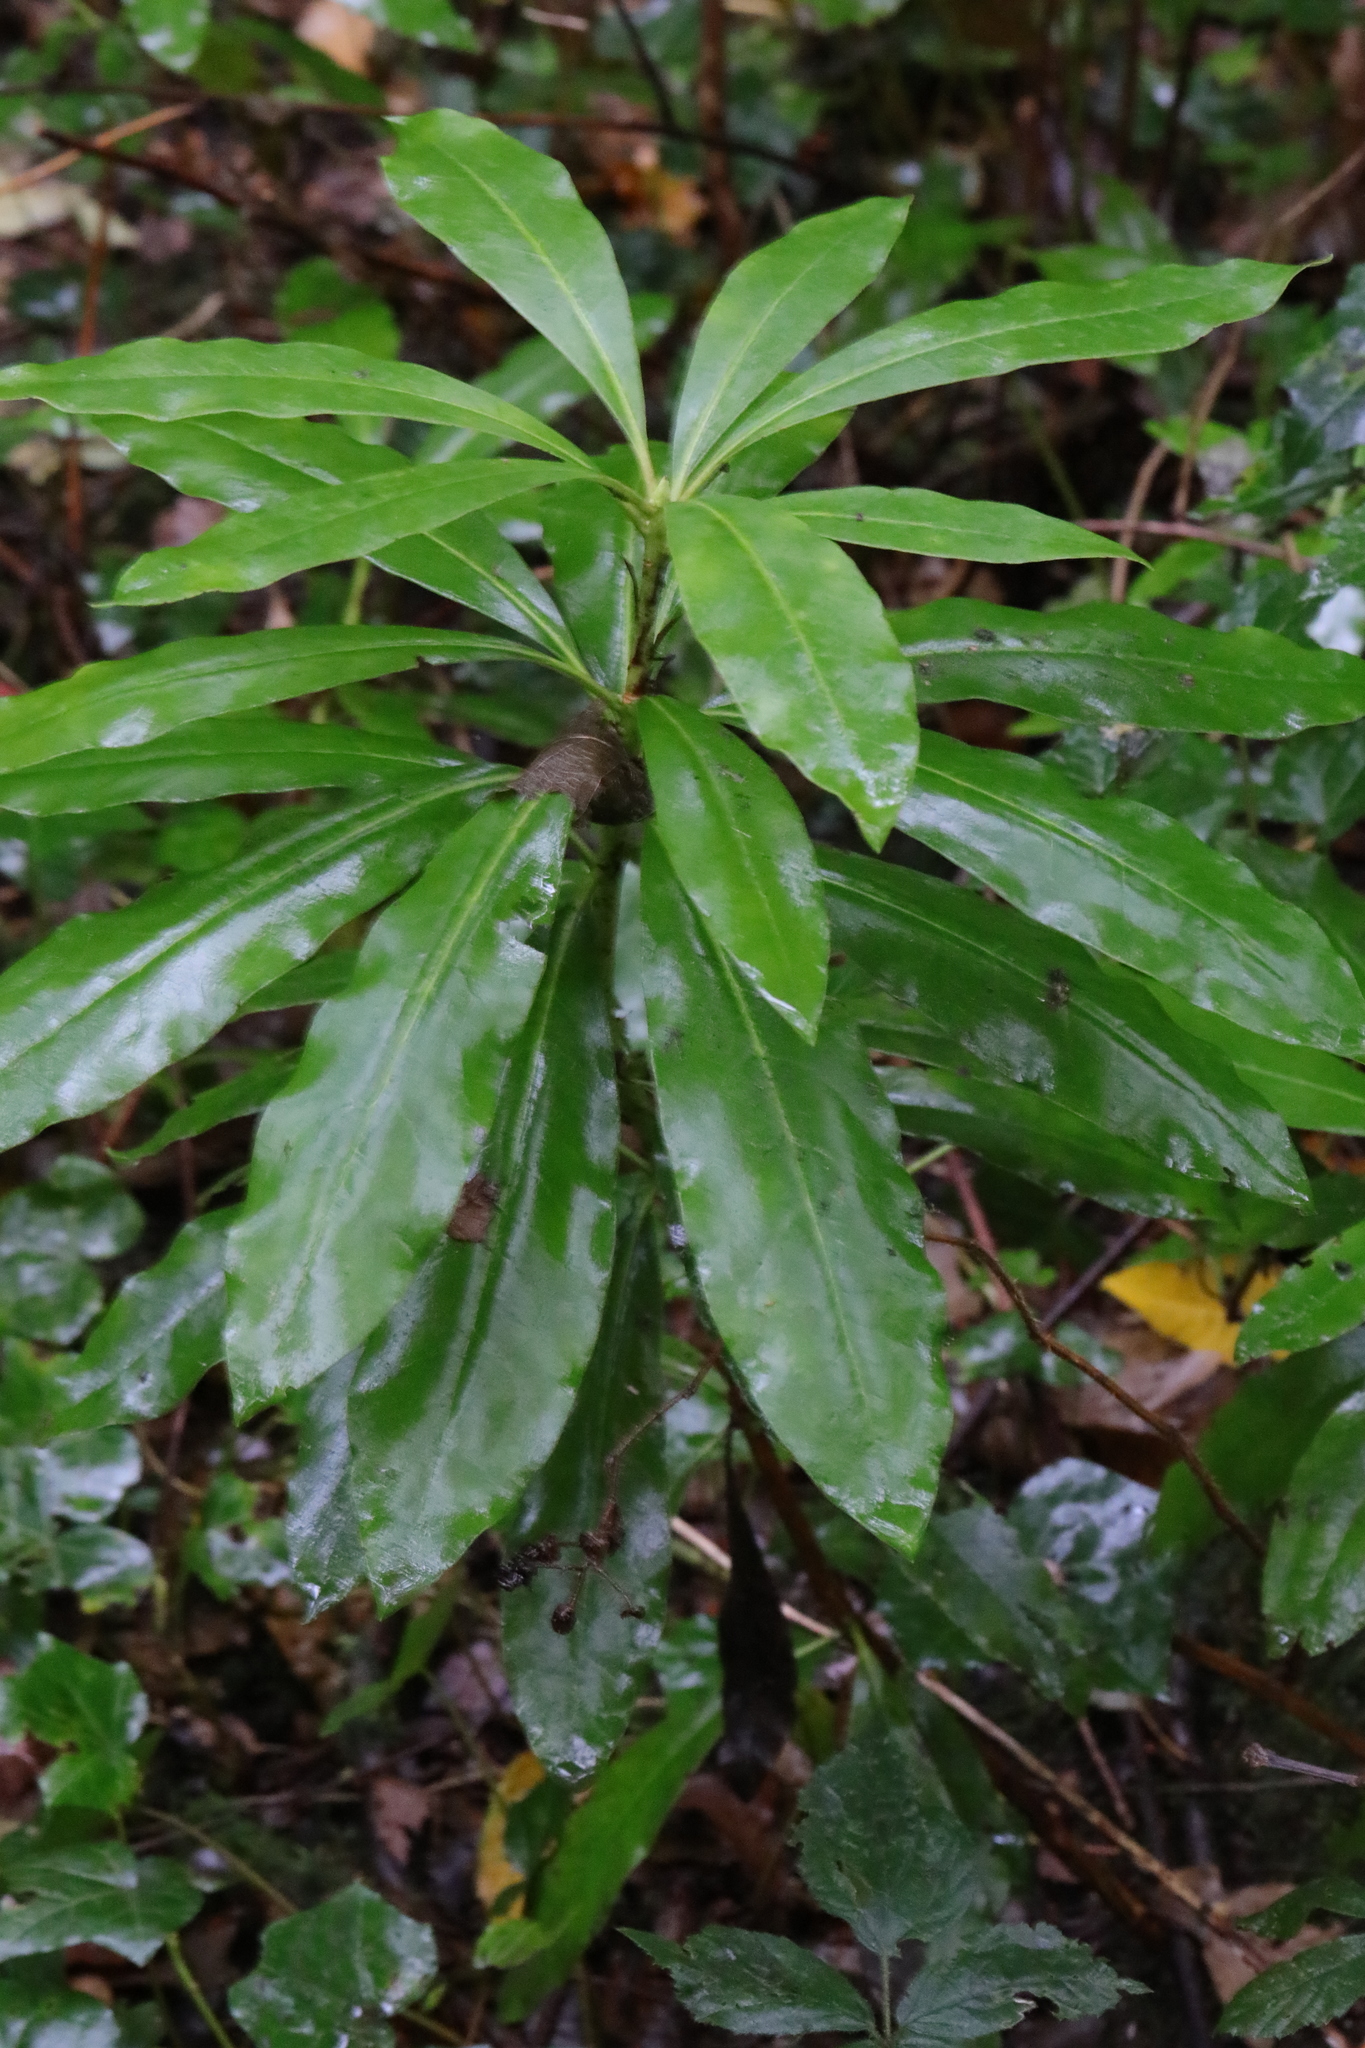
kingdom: Plantae
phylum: Tracheophyta
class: Magnoliopsida
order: Ericales
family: Ericaceae
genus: Rhododendron
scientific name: Rhododendron
